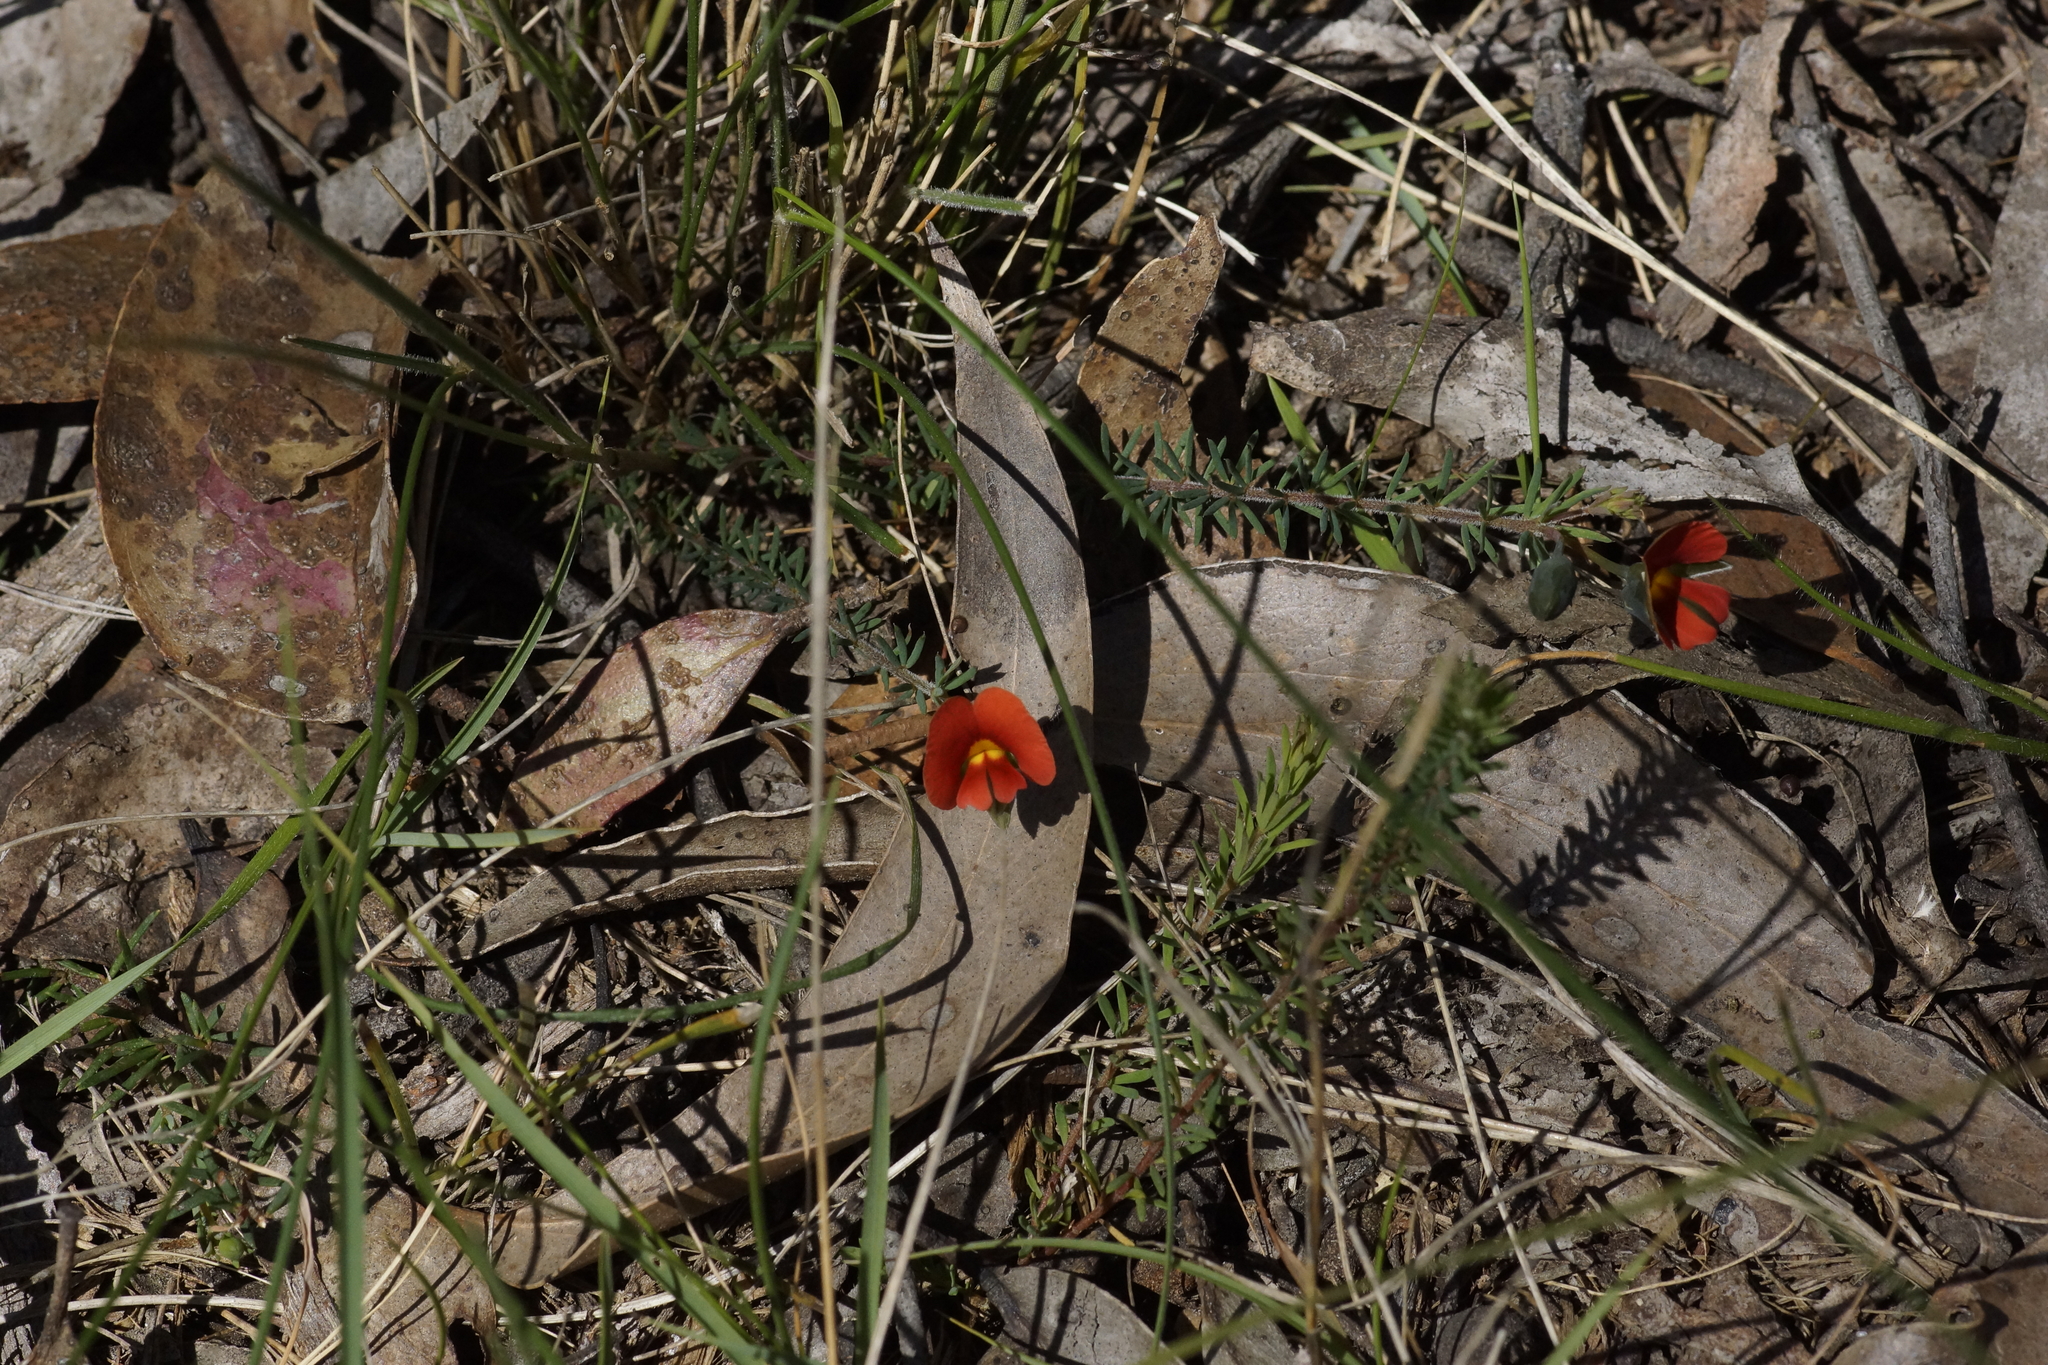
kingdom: Plantae
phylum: Tracheophyta
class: Magnoliopsida
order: Fabales
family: Fabaceae
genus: Gompholobium
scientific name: Gompholobium ecostatum
